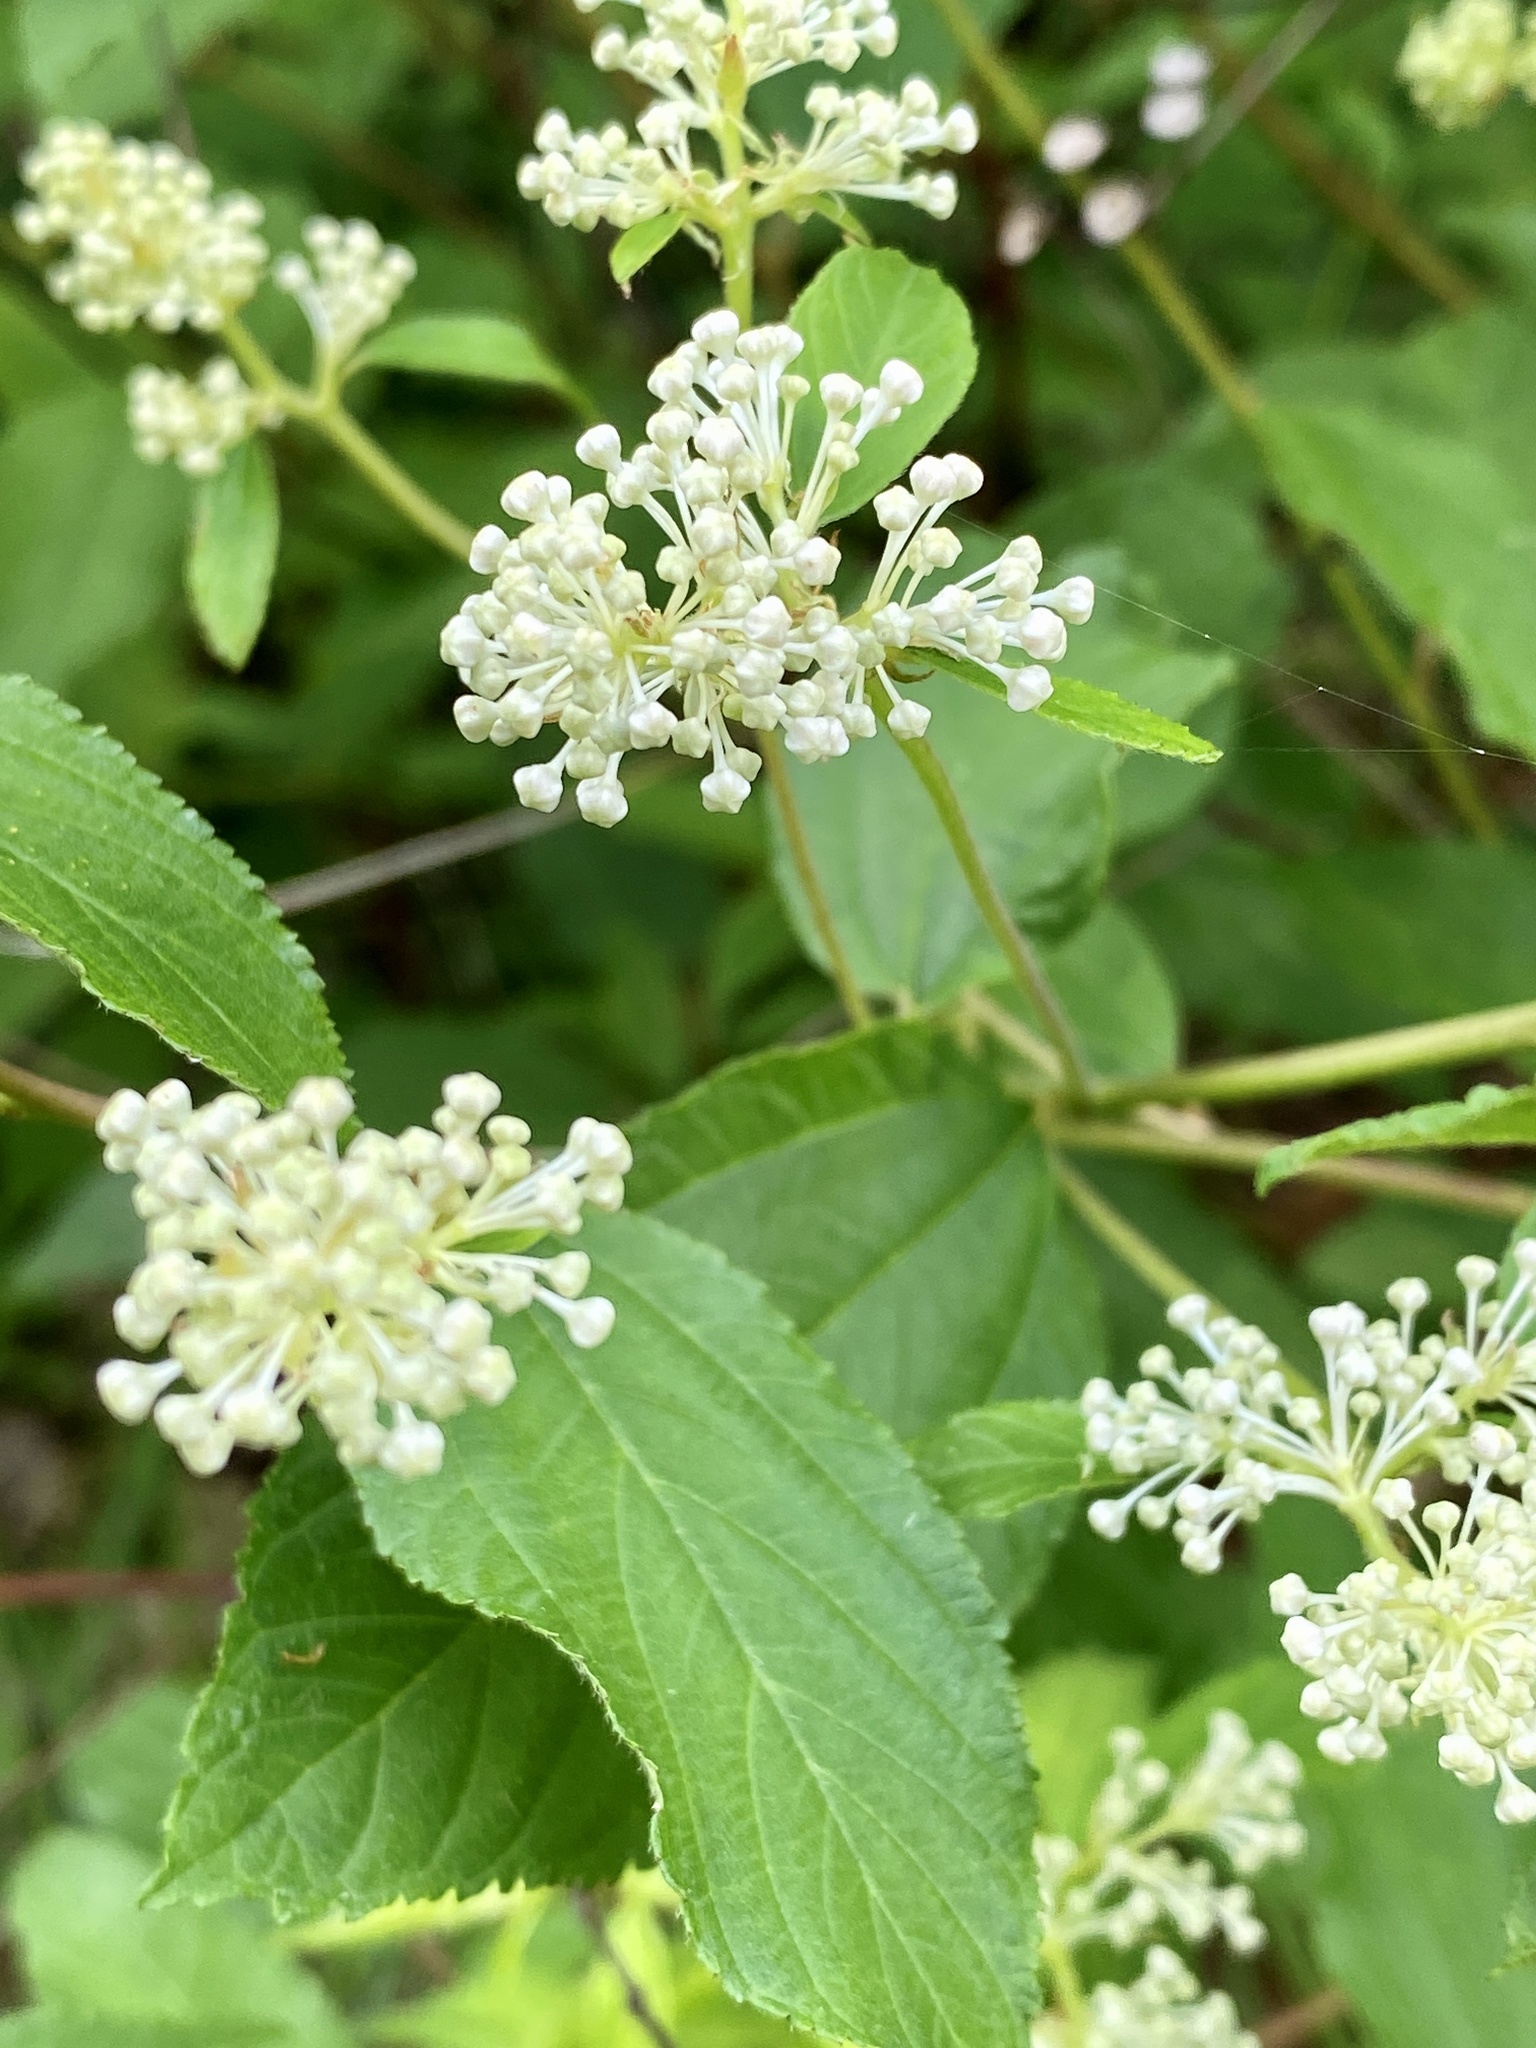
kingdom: Plantae
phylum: Tracheophyta
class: Magnoliopsida
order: Rosales
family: Rhamnaceae
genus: Ceanothus
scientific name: Ceanothus americanus
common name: Redroot
